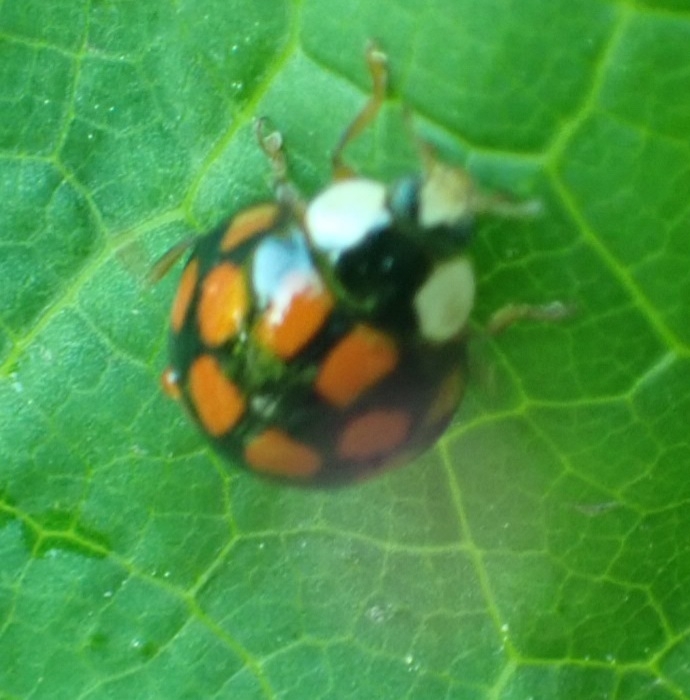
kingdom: Animalia
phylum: Arthropoda
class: Insecta
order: Coleoptera
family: Coccinellidae
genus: Harmonia
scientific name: Harmonia axyridis
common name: Harlequin ladybird
